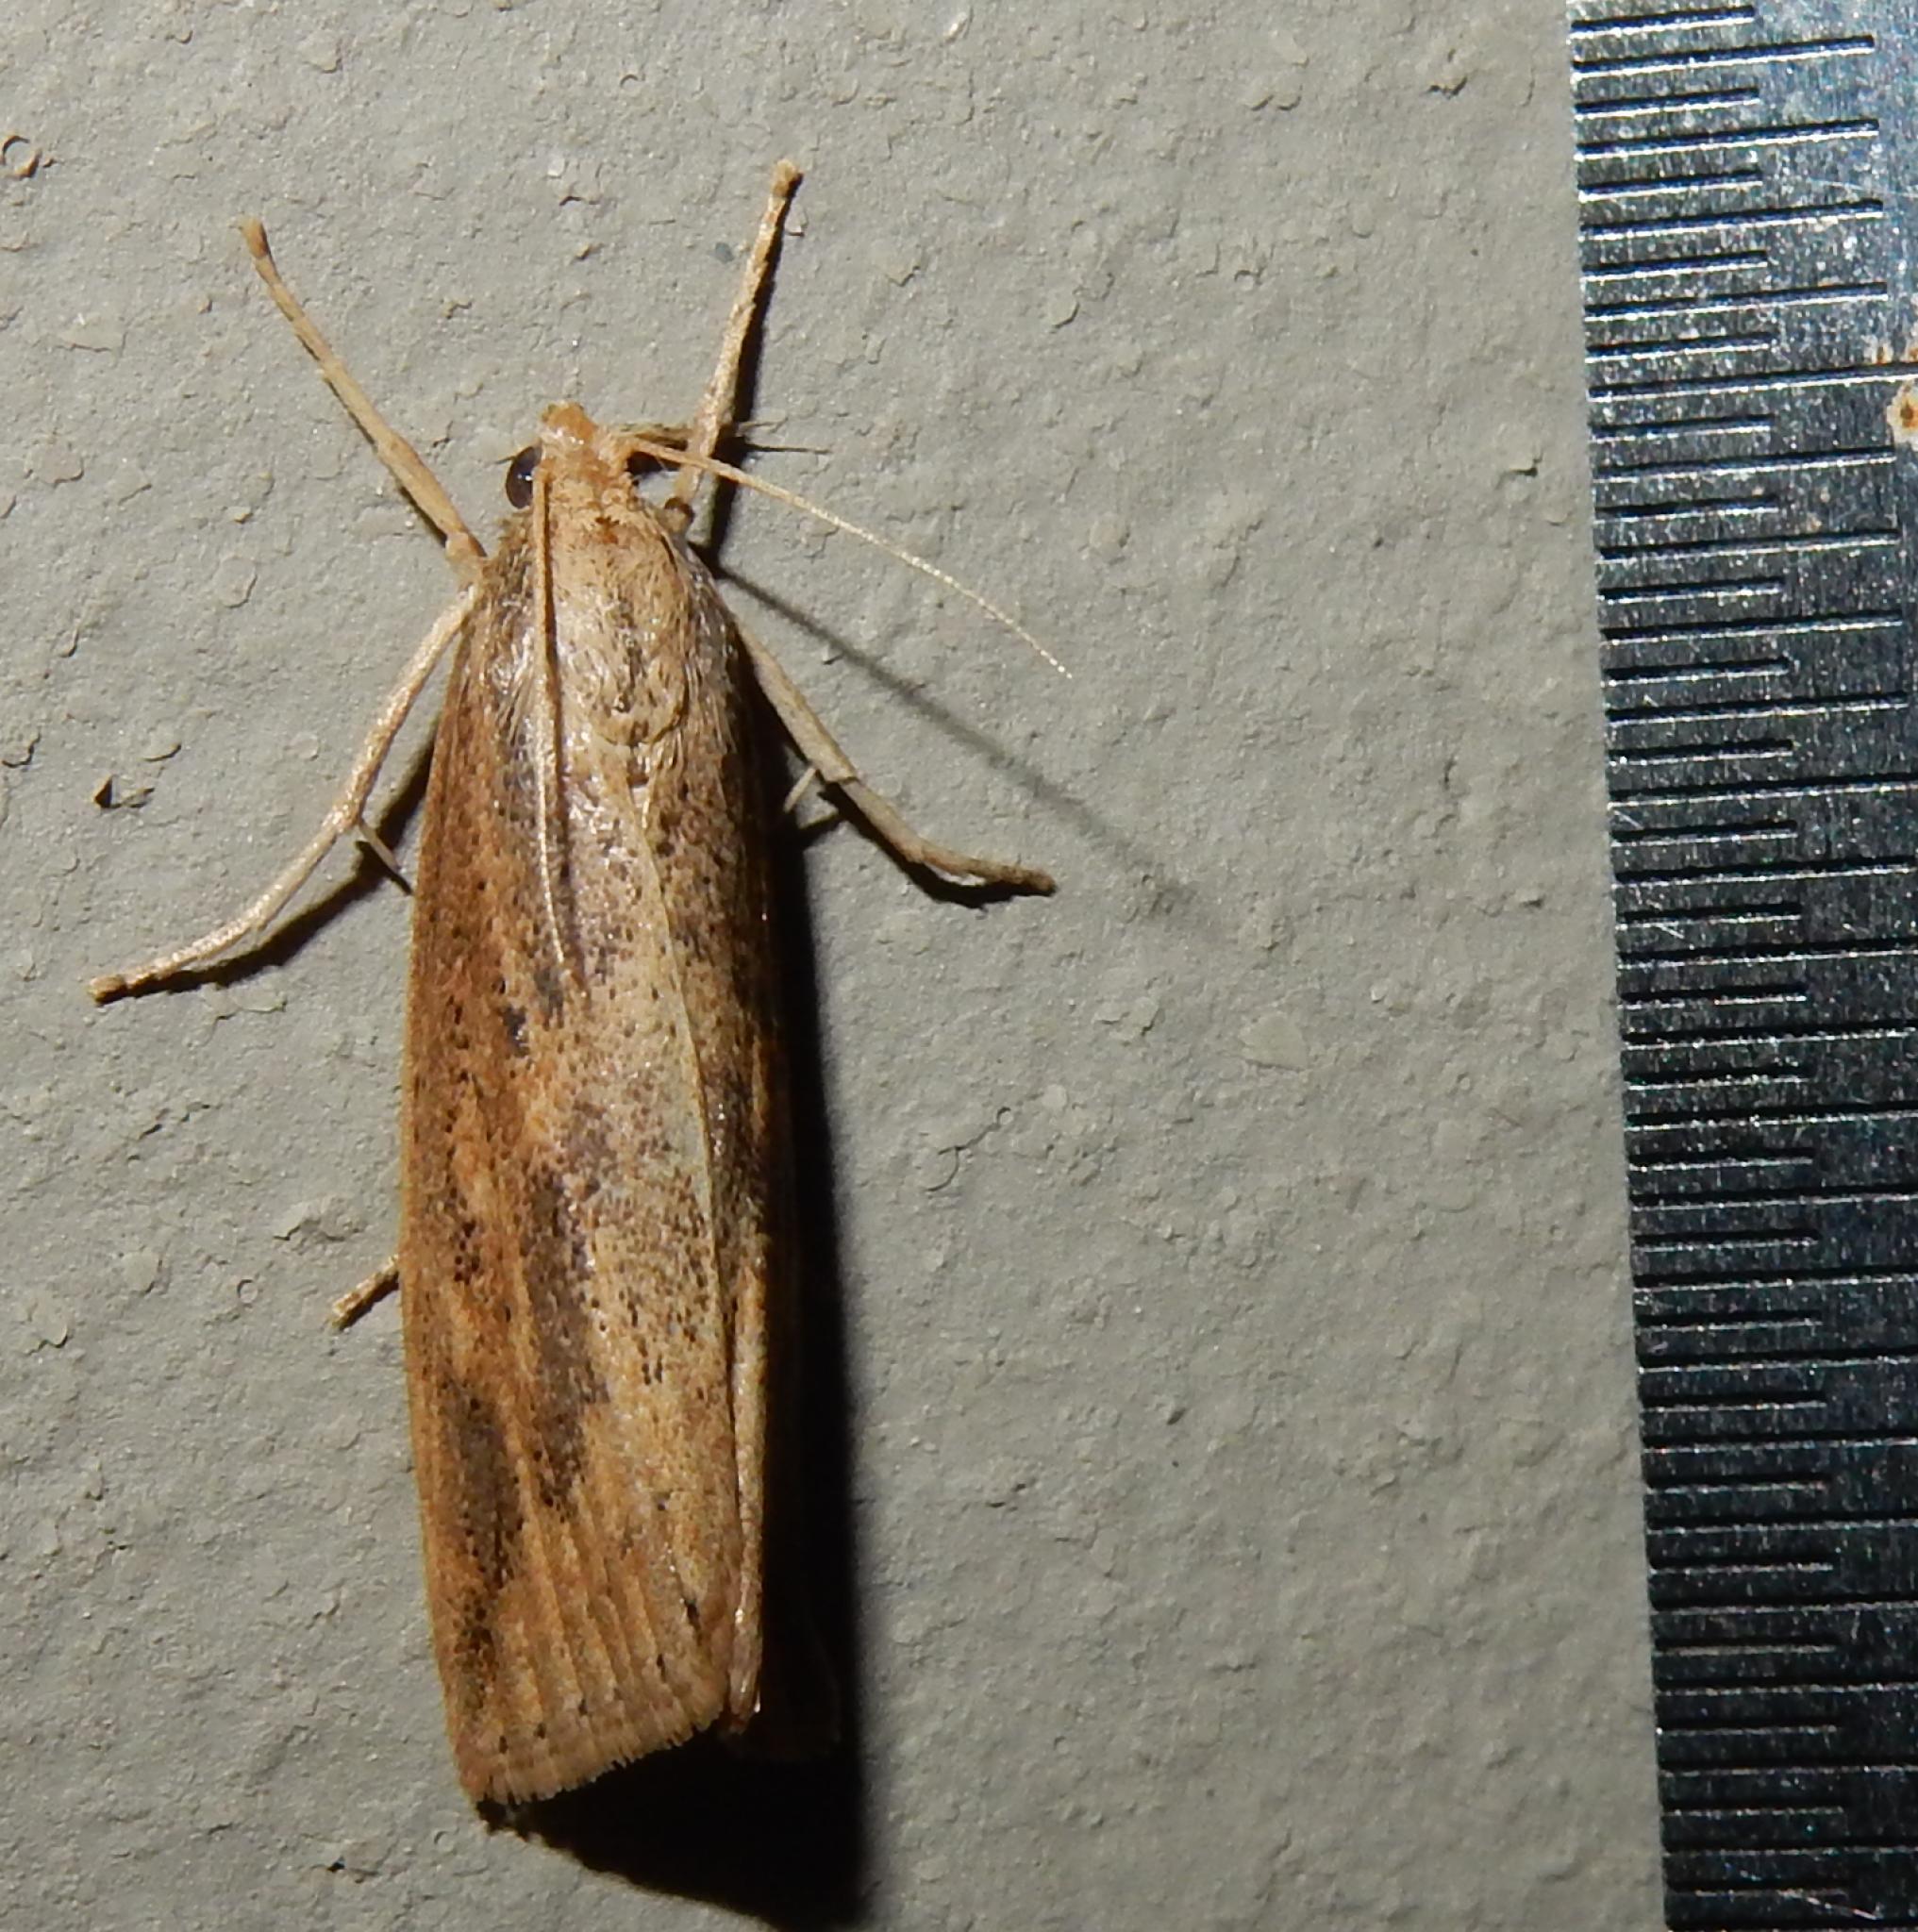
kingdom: Animalia
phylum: Arthropoda
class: Insecta
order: Lepidoptera
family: Crambidae
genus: Chilo
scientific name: Chilo partellus
